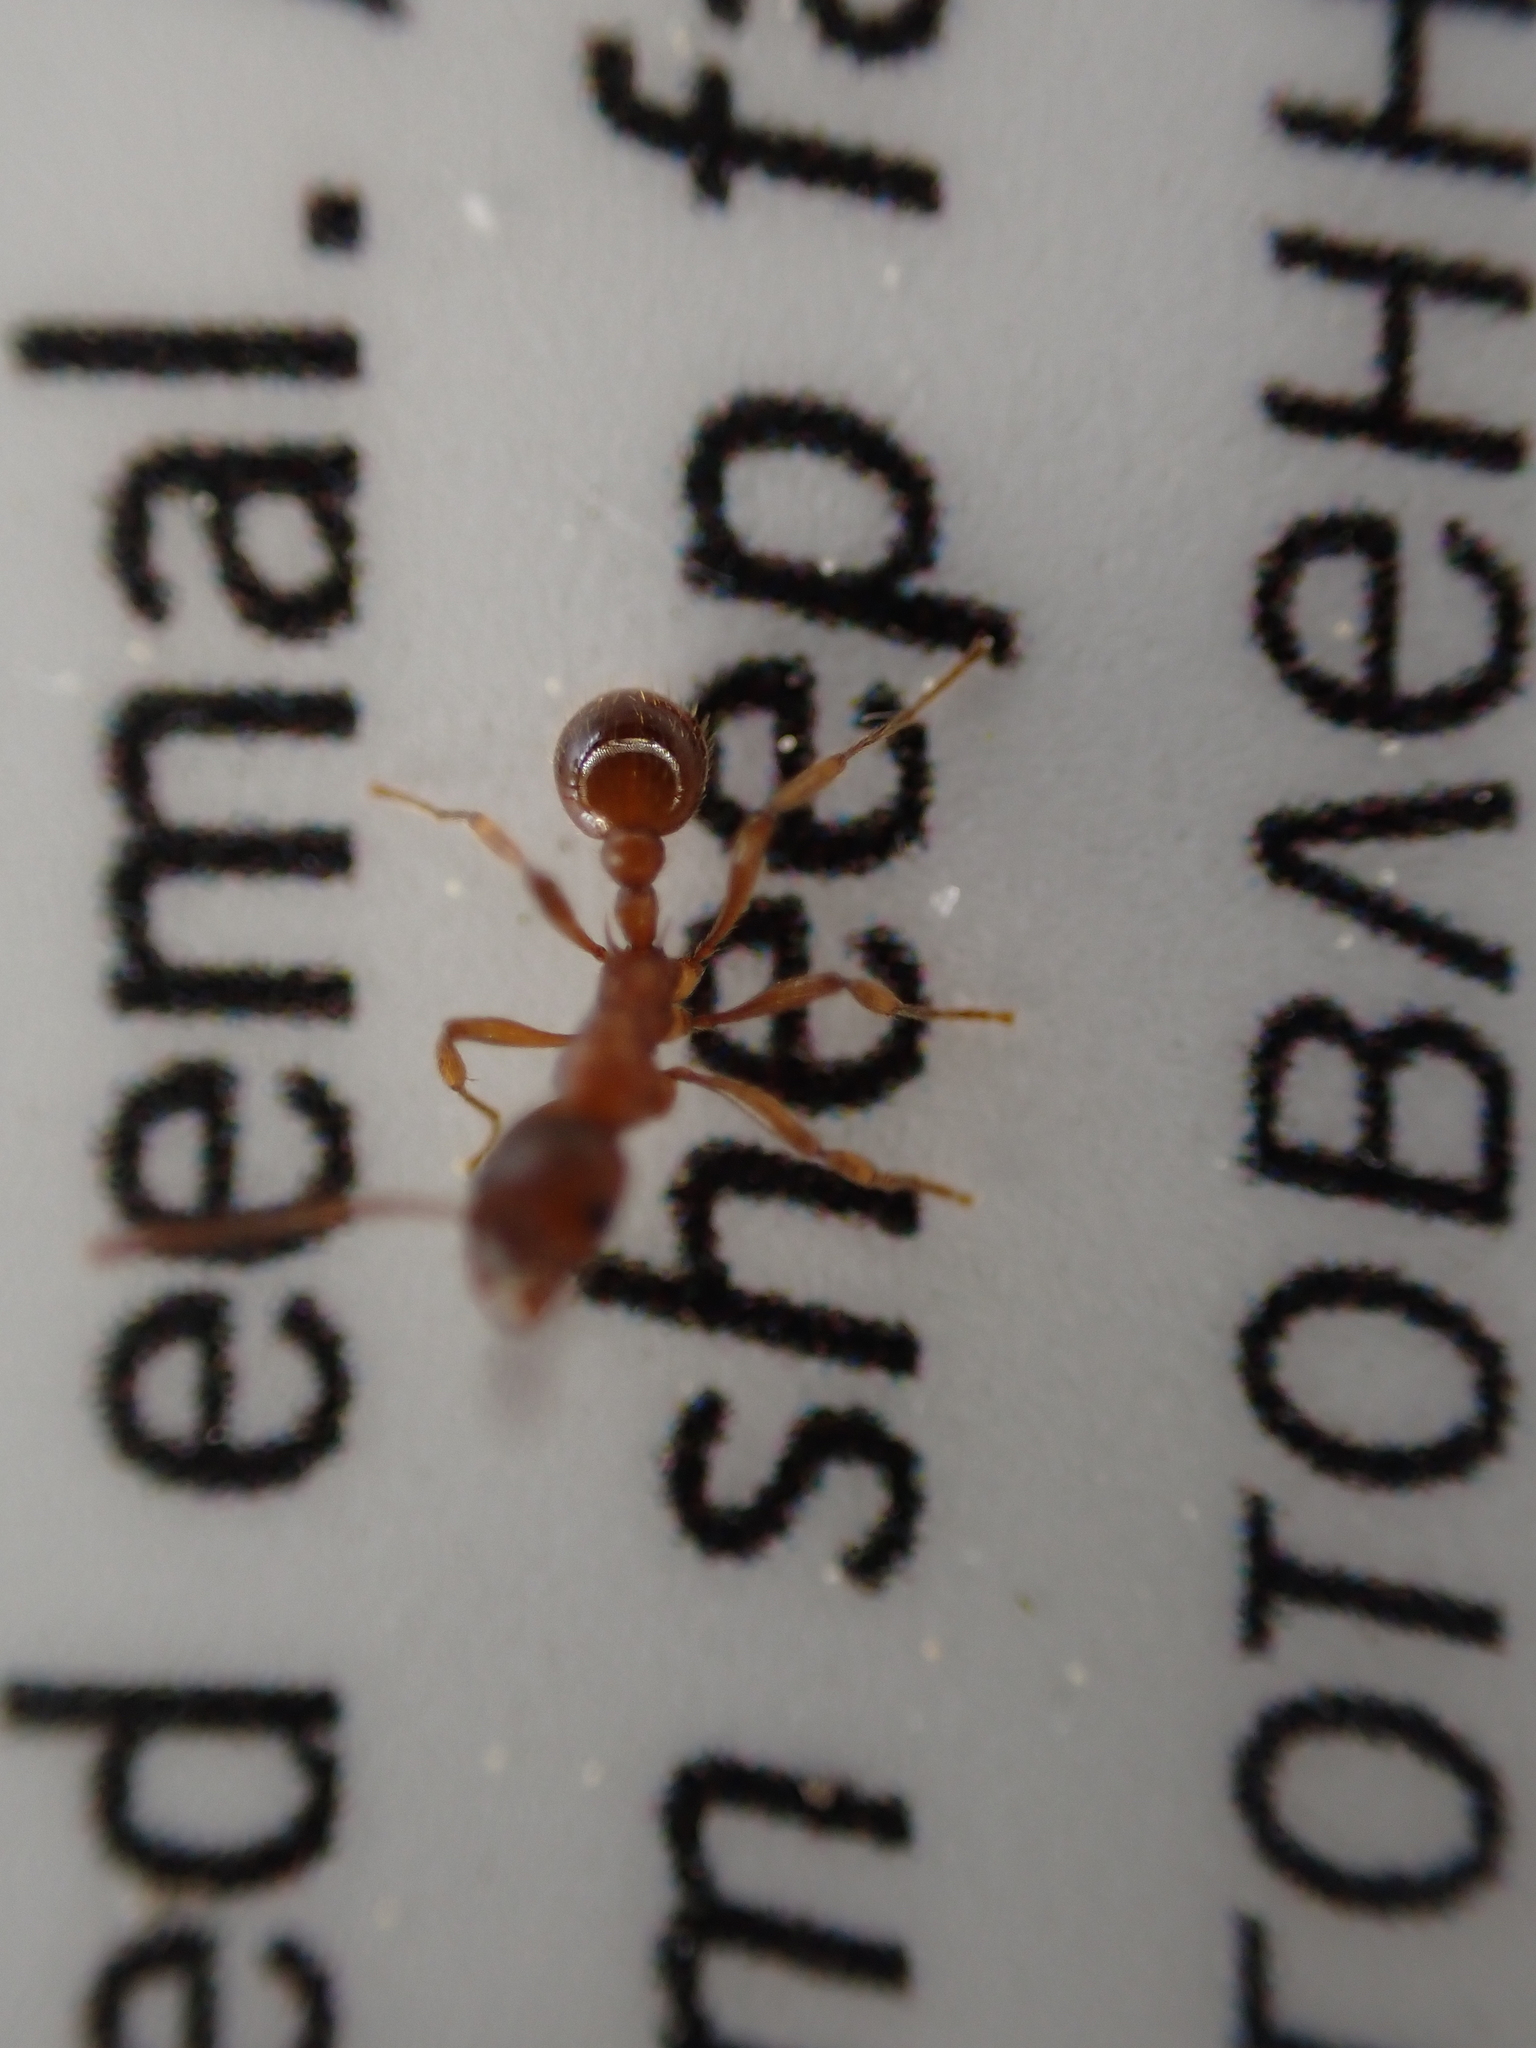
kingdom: Animalia
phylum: Arthropoda
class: Insecta
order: Hymenoptera
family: Formicidae
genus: Myrmica
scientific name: Myrmica
